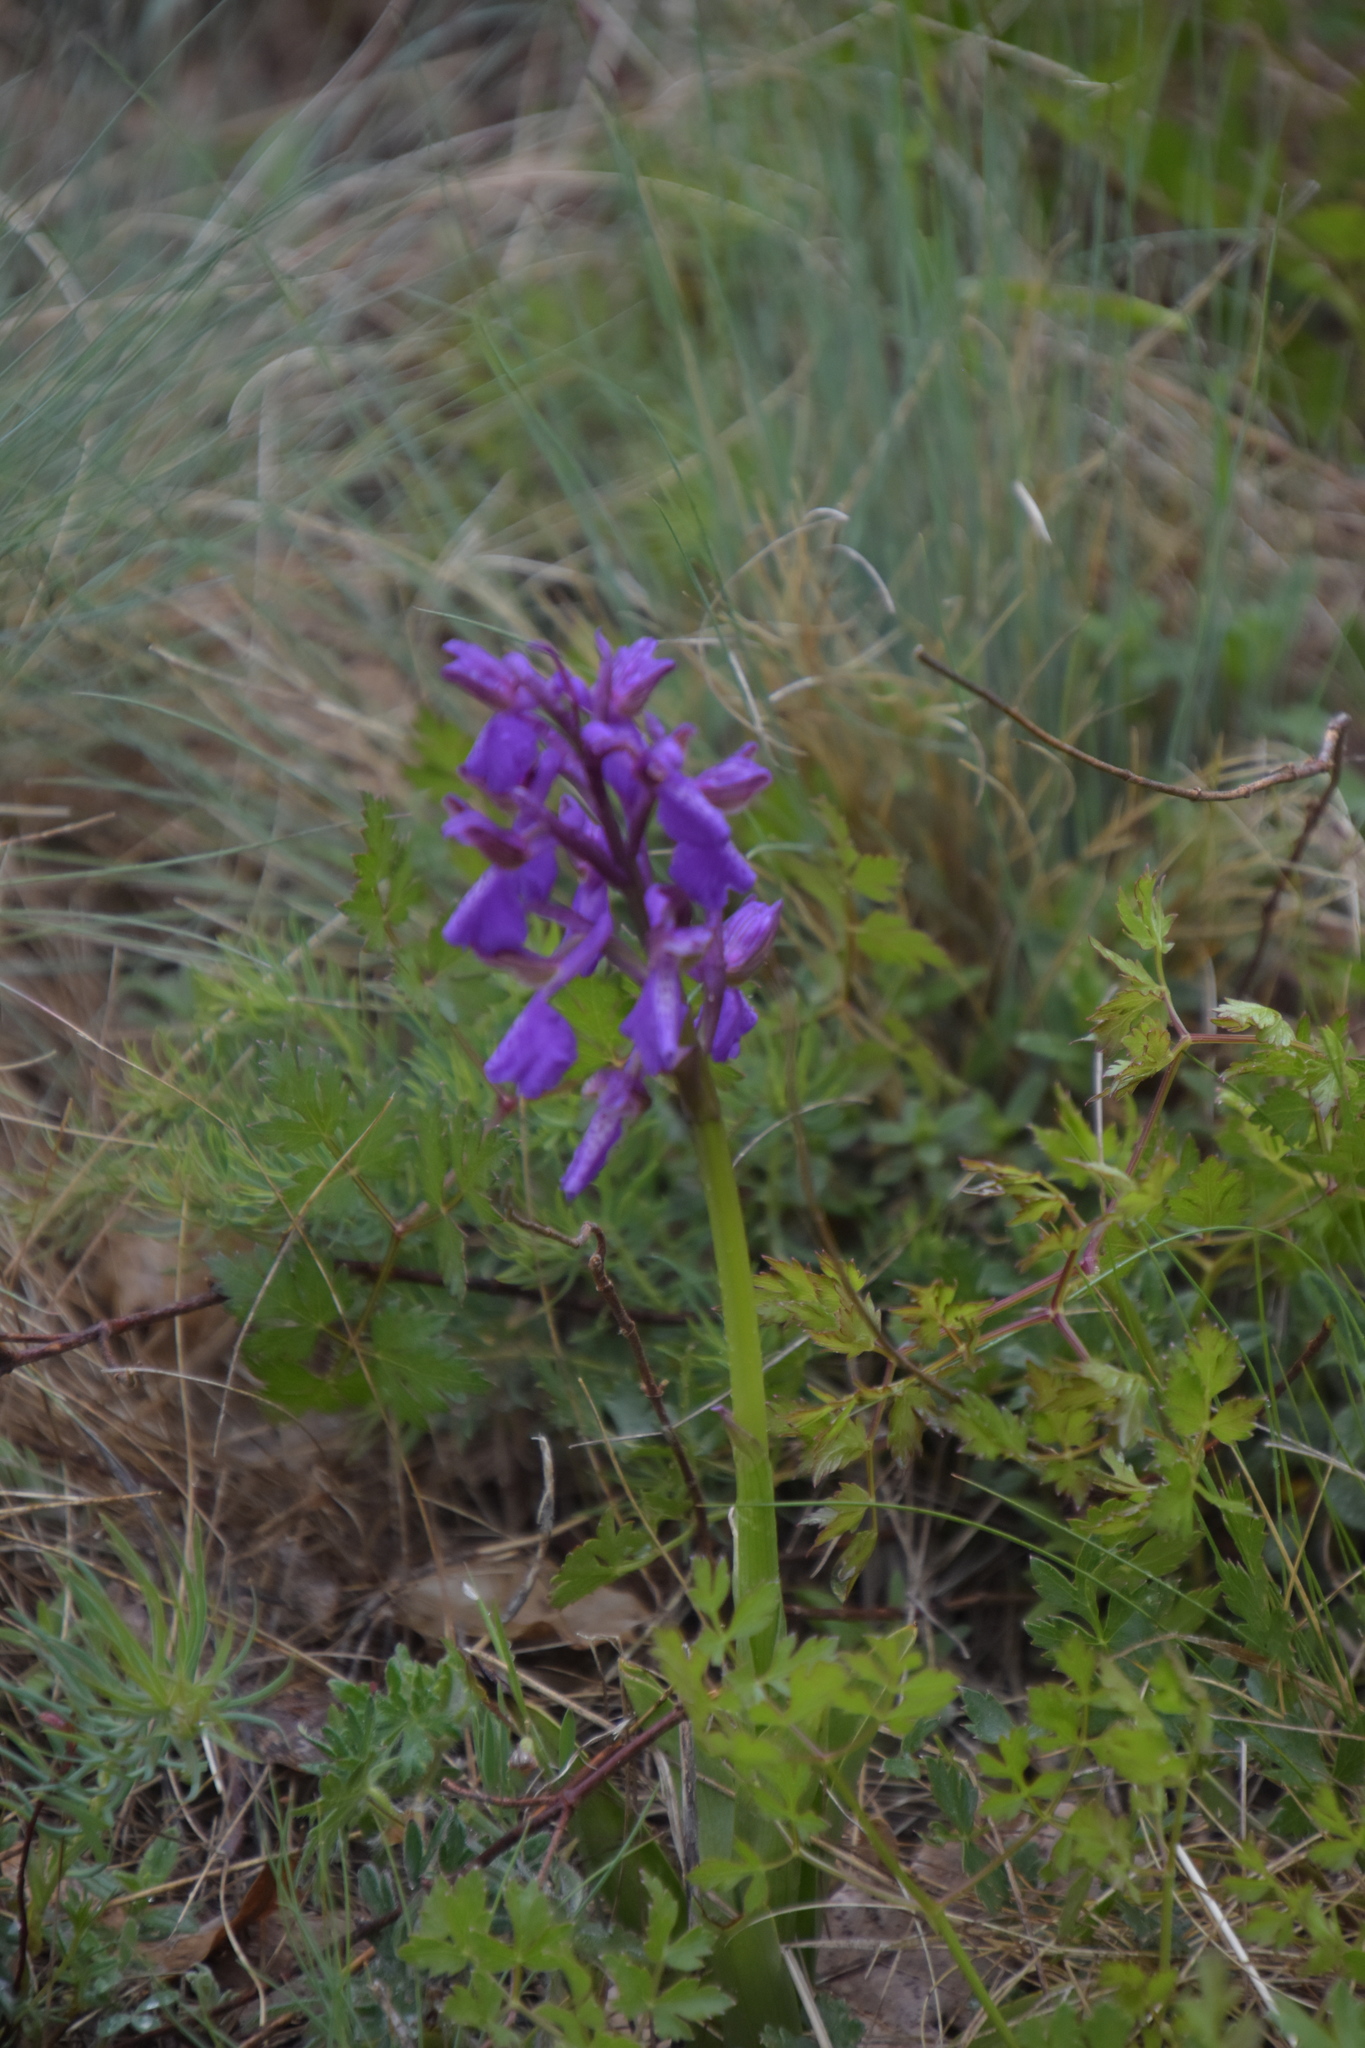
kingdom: Plantae
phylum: Tracheophyta
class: Liliopsida
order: Asparagales
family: Orchidaceae
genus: Anacamptis
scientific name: Anacamptis morio
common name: Green-winged orchid
